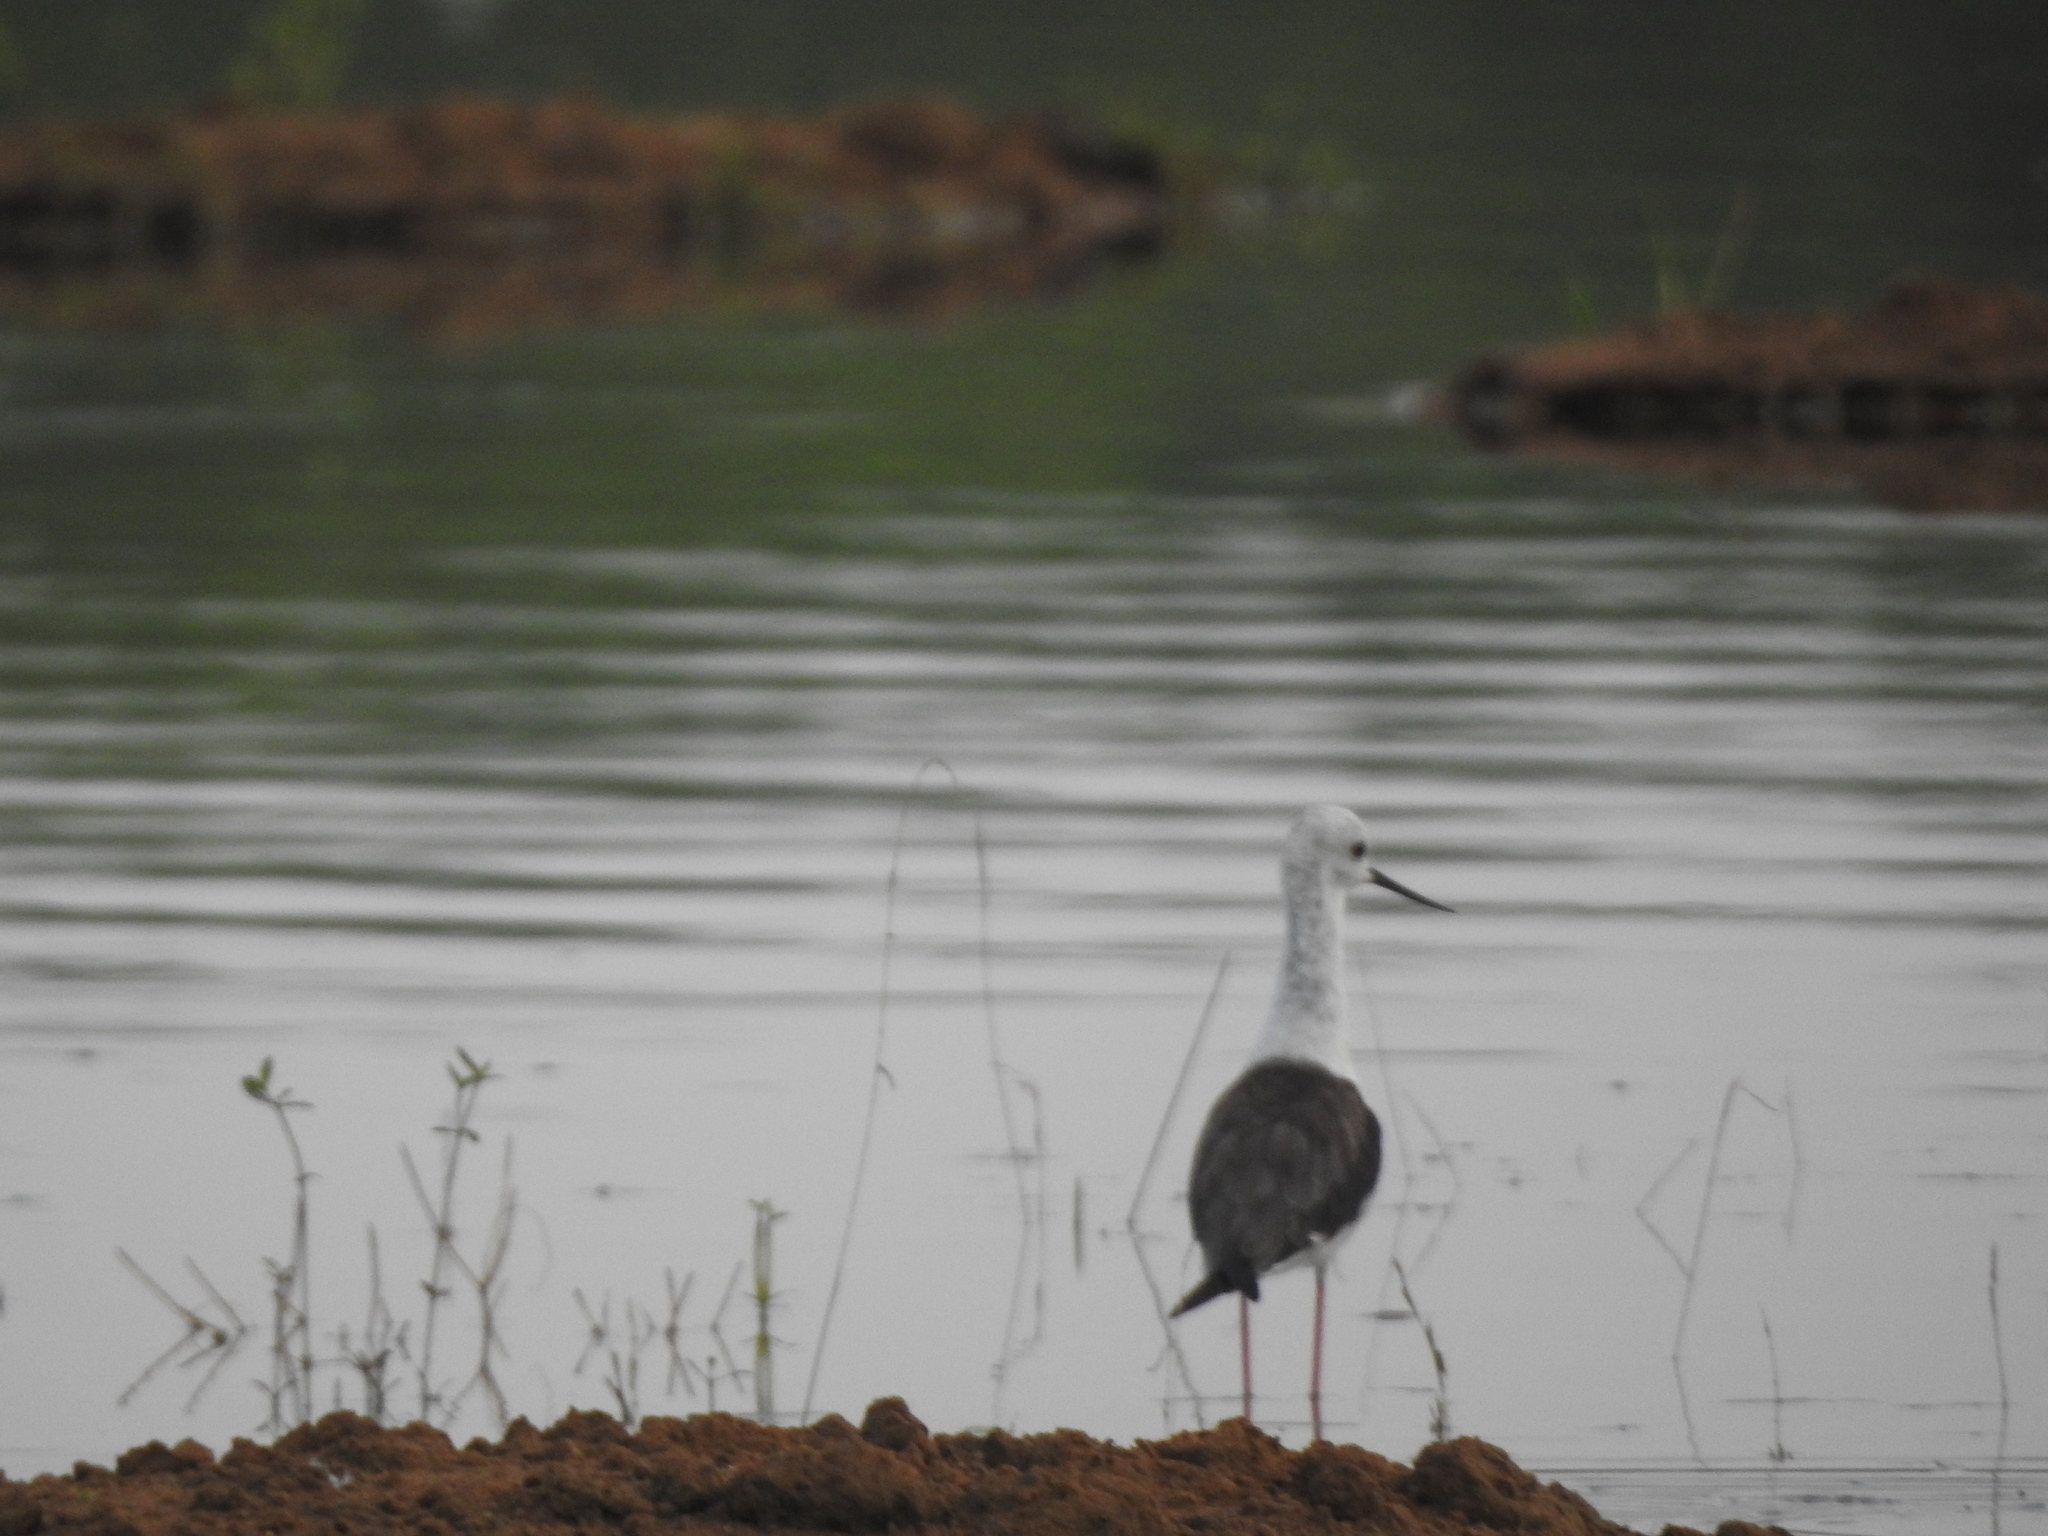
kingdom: Animalia
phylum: Chordata
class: Aves
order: Charadriiformes
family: Recurvirostridae
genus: Himantopus
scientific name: Himantopus himantopus
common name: Black-winged stilt
